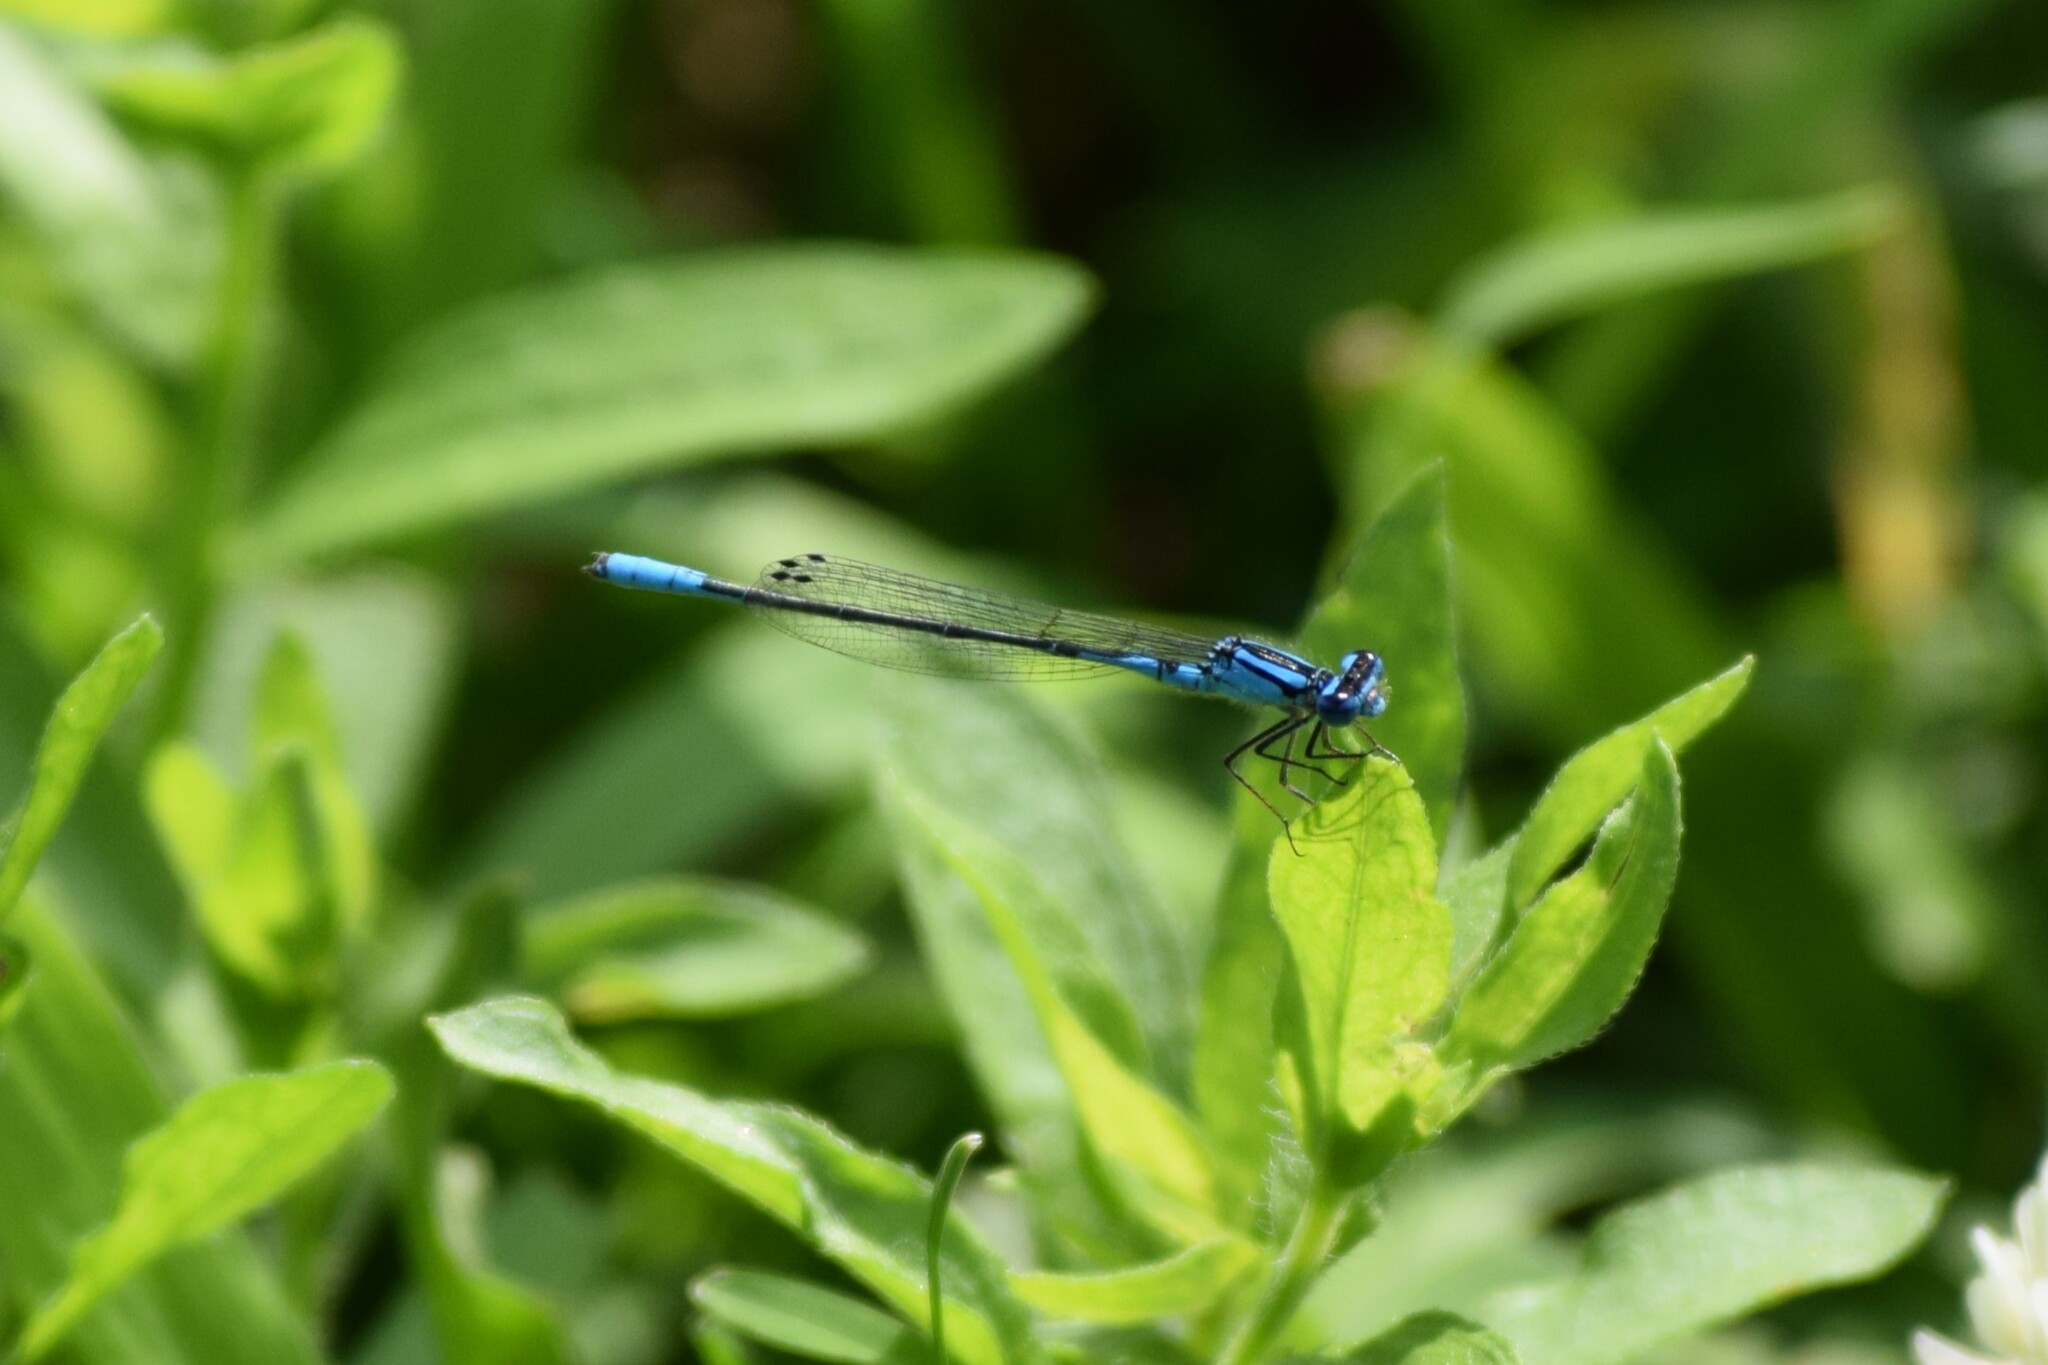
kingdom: Animalia
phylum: Arthropoda
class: Insecta
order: Odonata
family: Coenagrionidae
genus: Enallagma
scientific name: Enallagma aspersum
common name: Azure bluet
